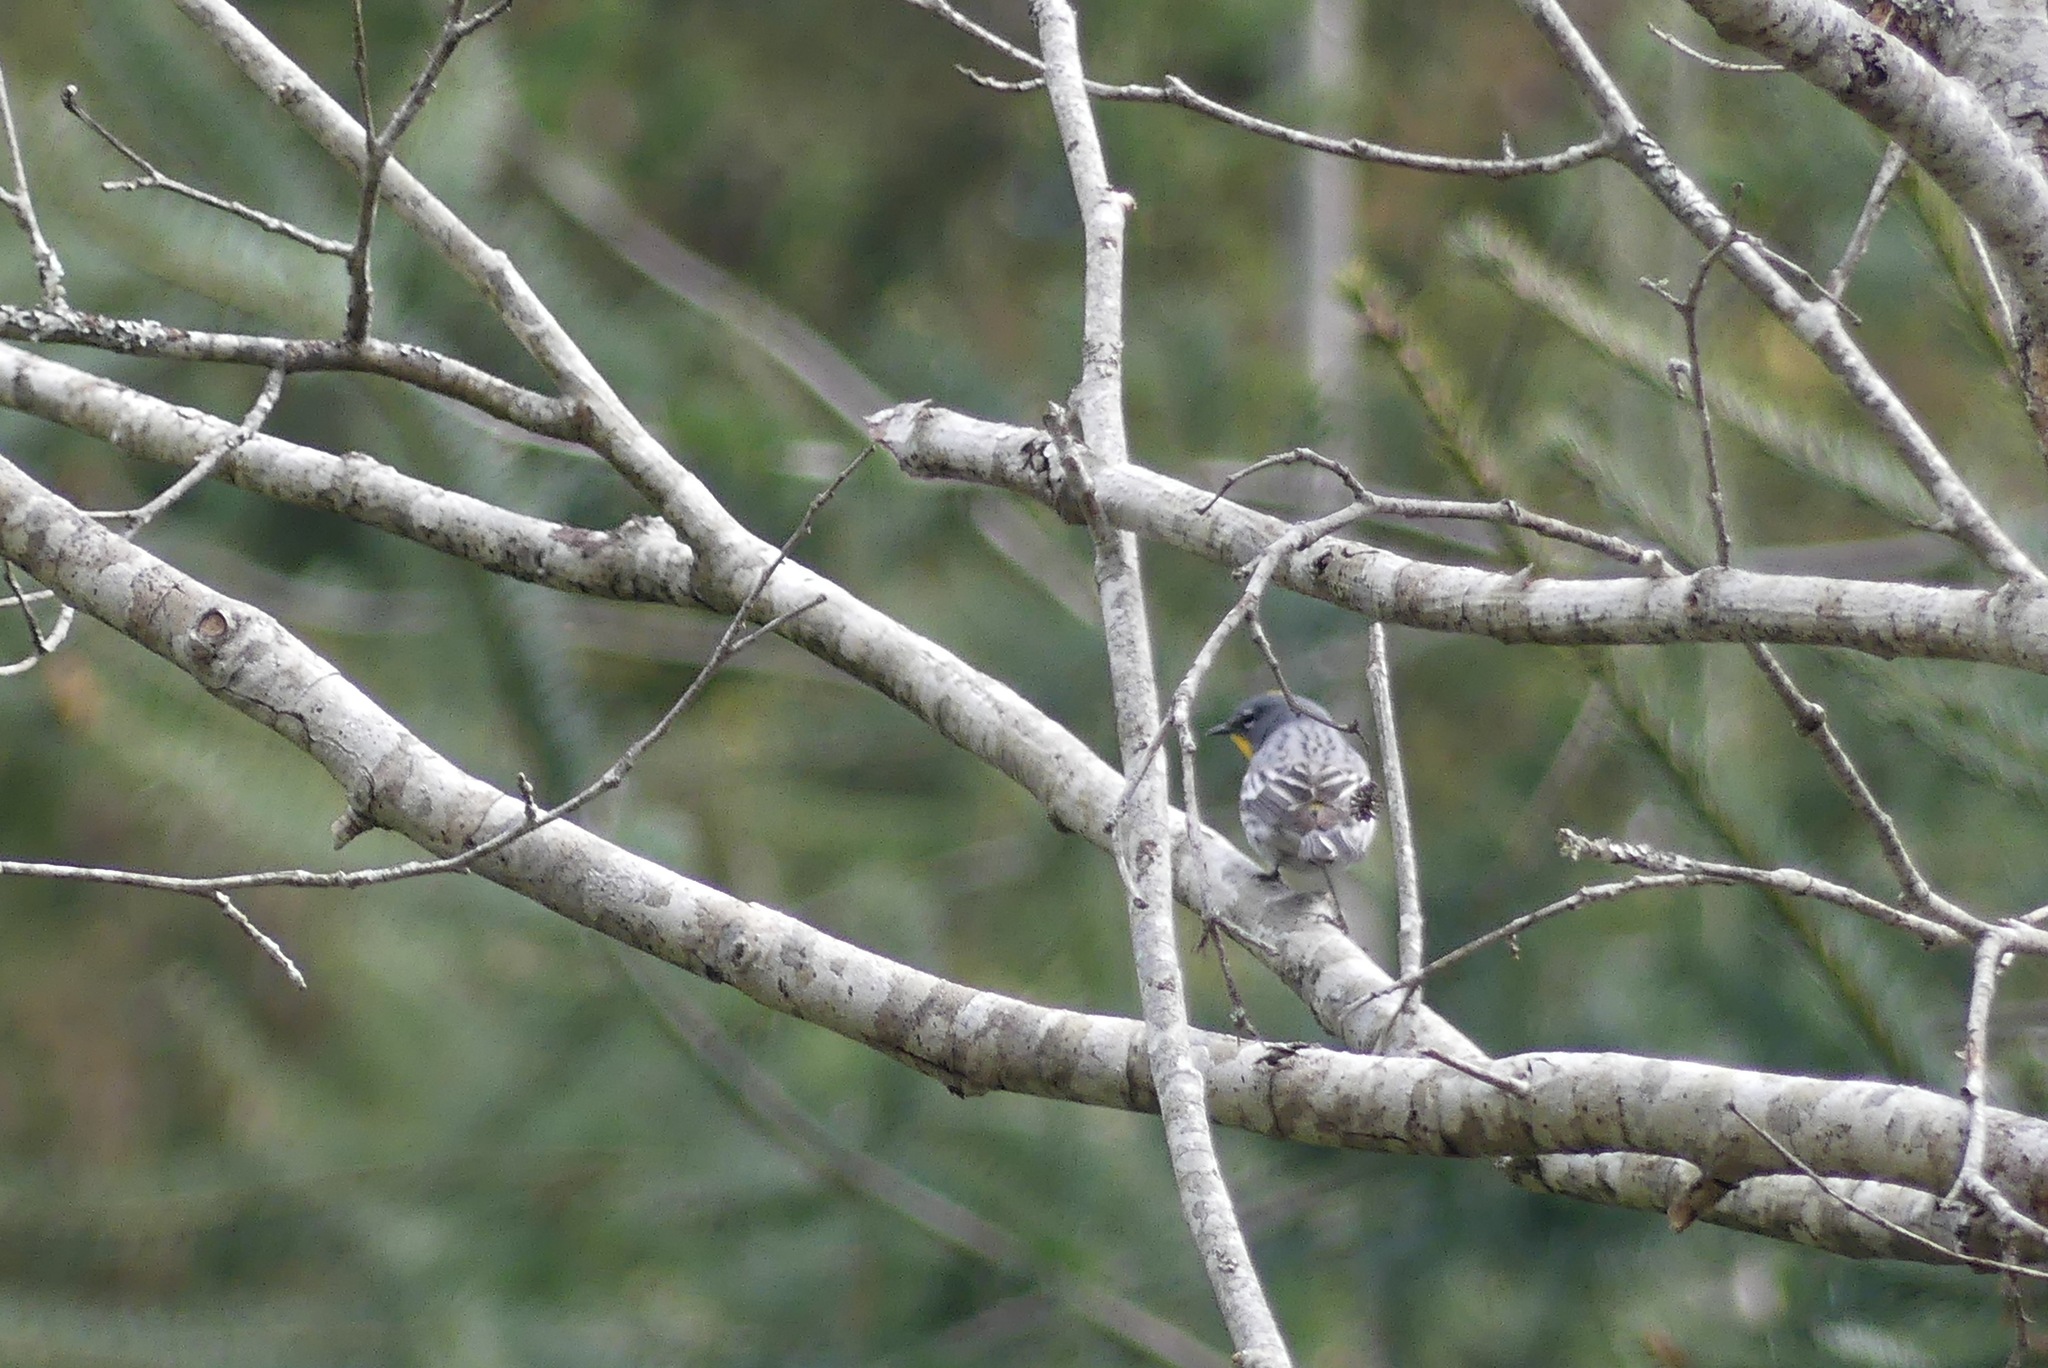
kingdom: Animalia
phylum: Chordata
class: Aves
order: Passeriformes
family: Parulidae
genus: Setophaga
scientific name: Setophaga coronata
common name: Myrtle warbler
